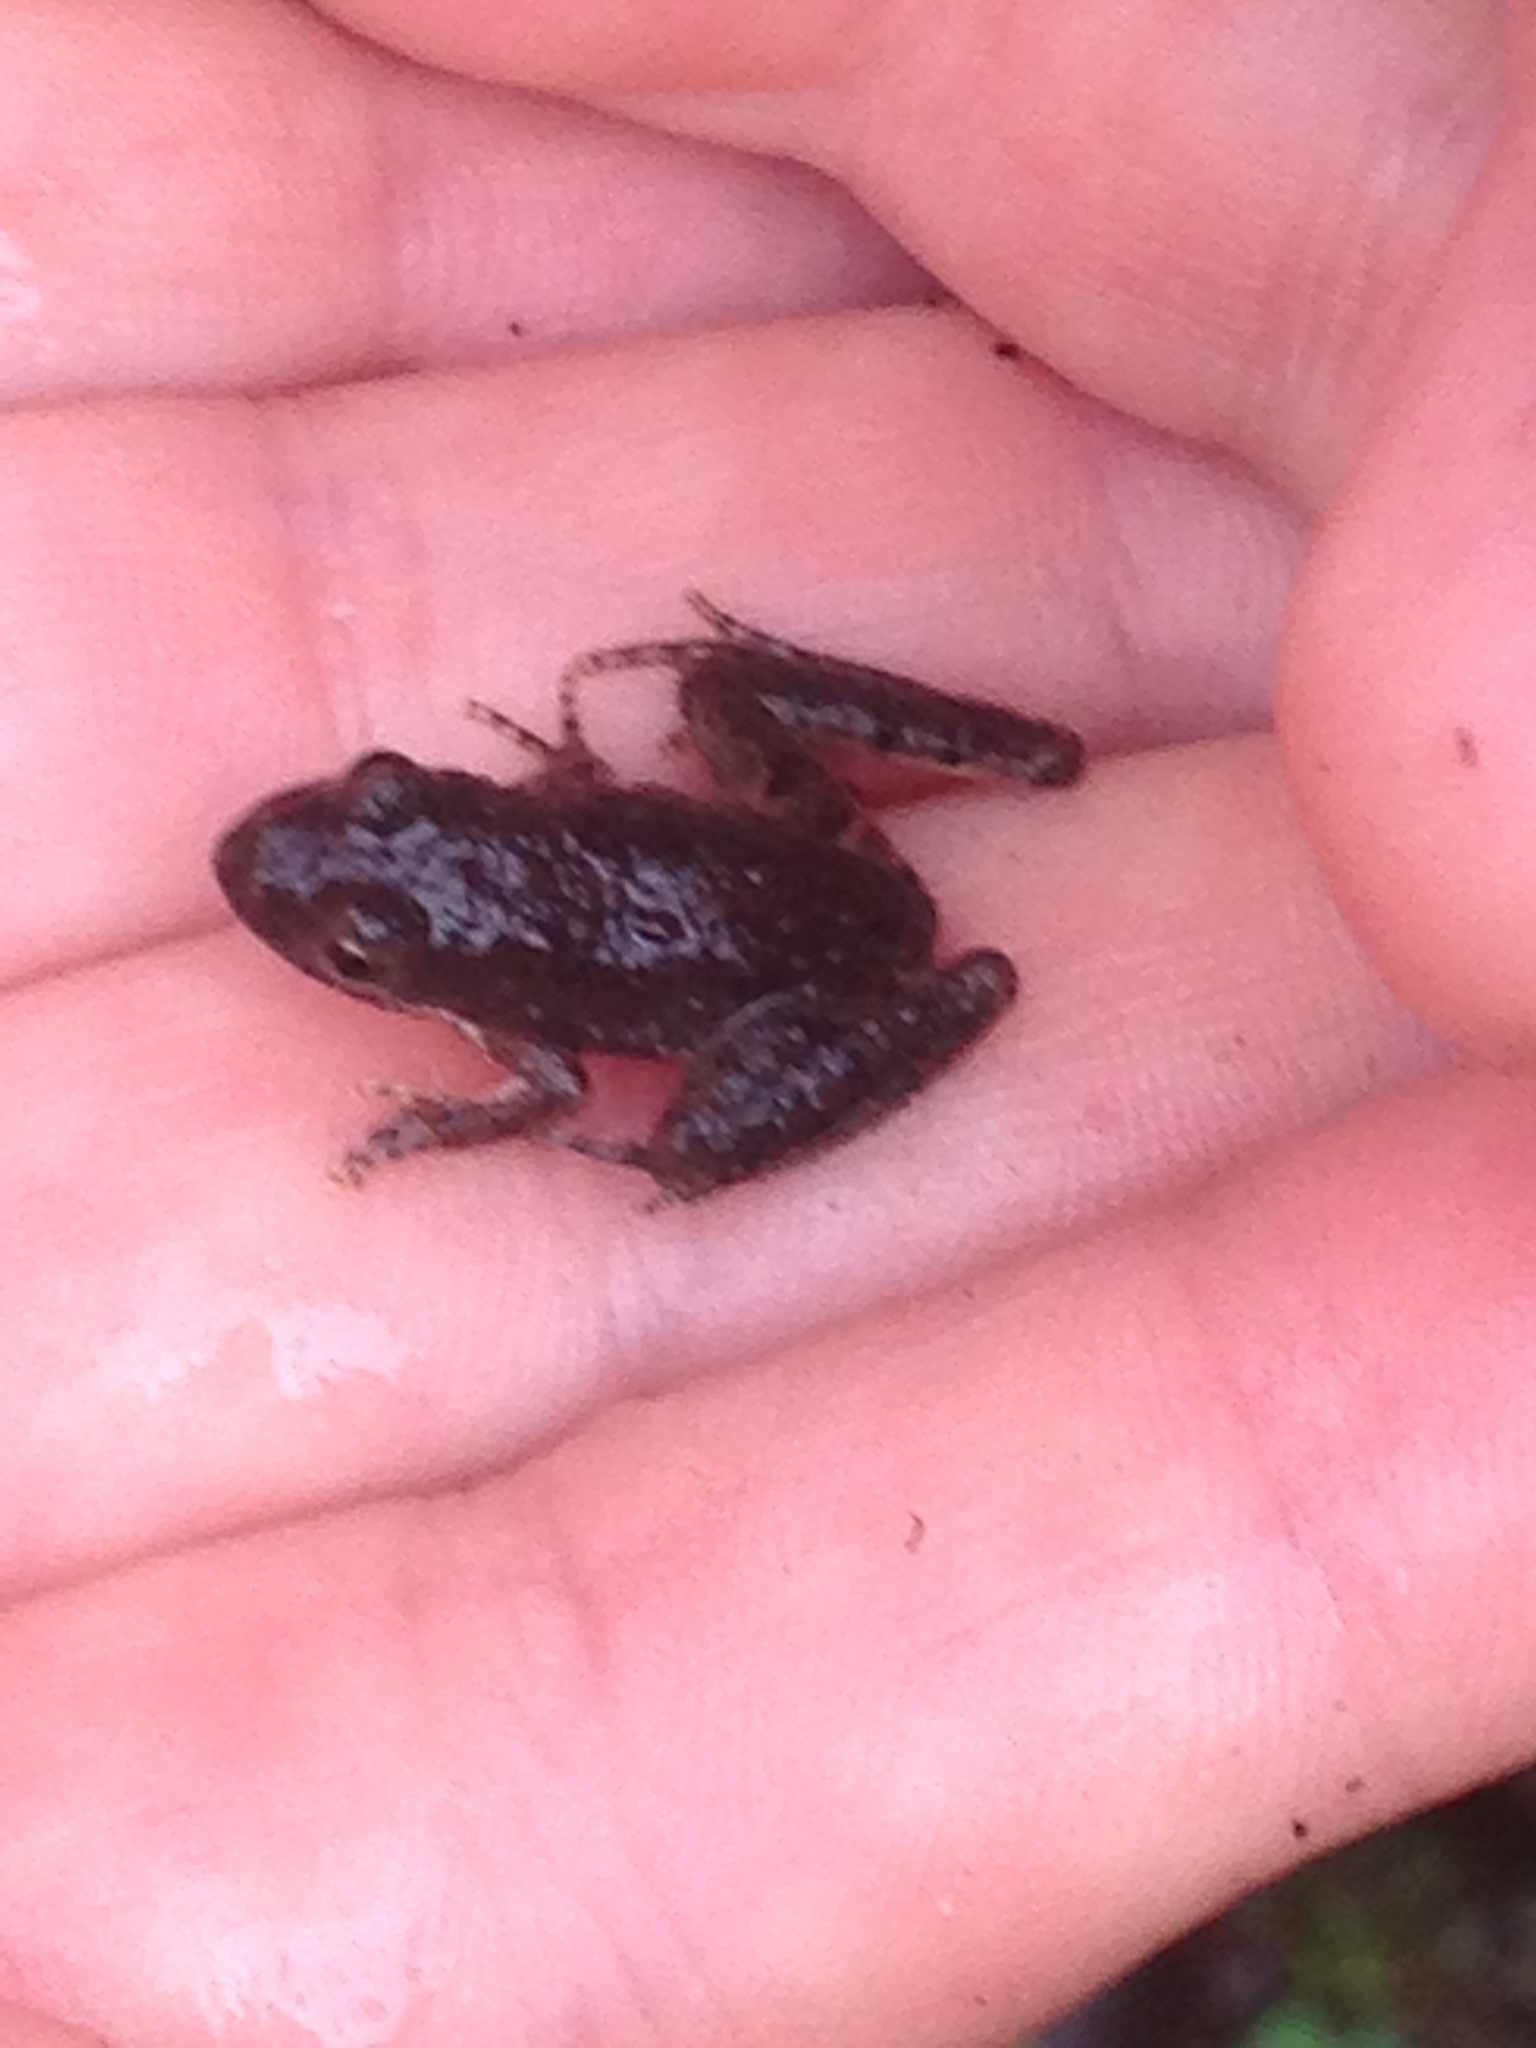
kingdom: Animalia
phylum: Chordata
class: Amphibia
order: Anura
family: Hylidae
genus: Acris
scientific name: Acris blanchardi
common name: Blanchard's cricket frog
